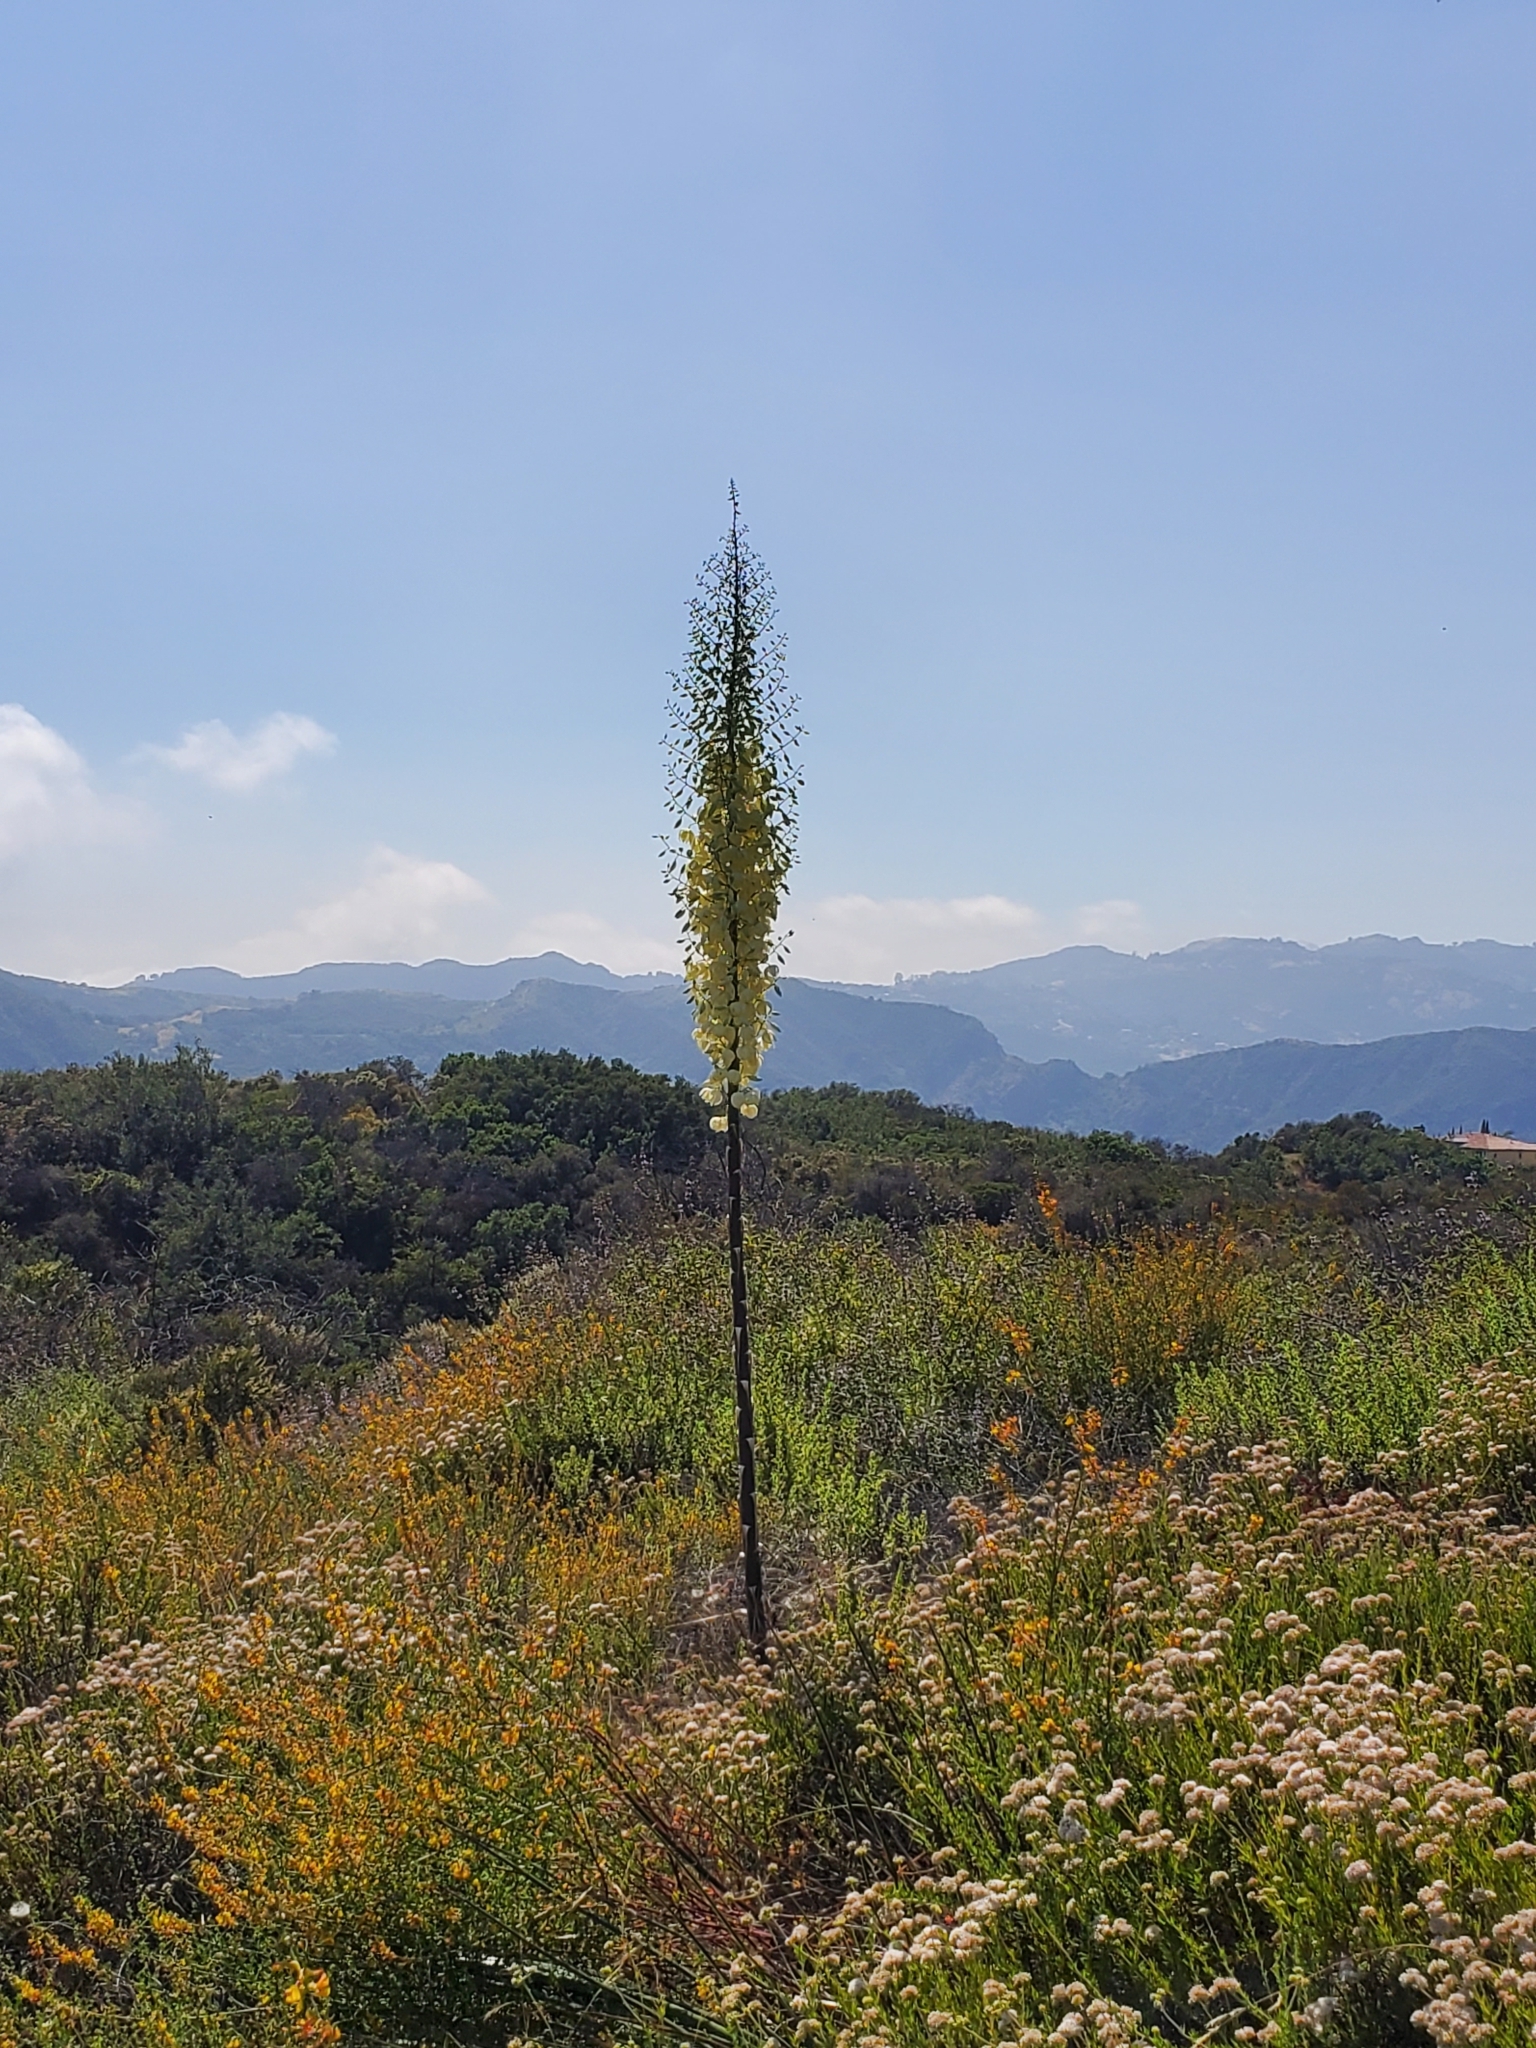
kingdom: Plantae
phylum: Tracheophyta
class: Liliopsida
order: Asparagales
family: Asparagaceae
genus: Hesperoyucca
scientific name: Hesperoyucca whipplei
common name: Our lord's-candle
